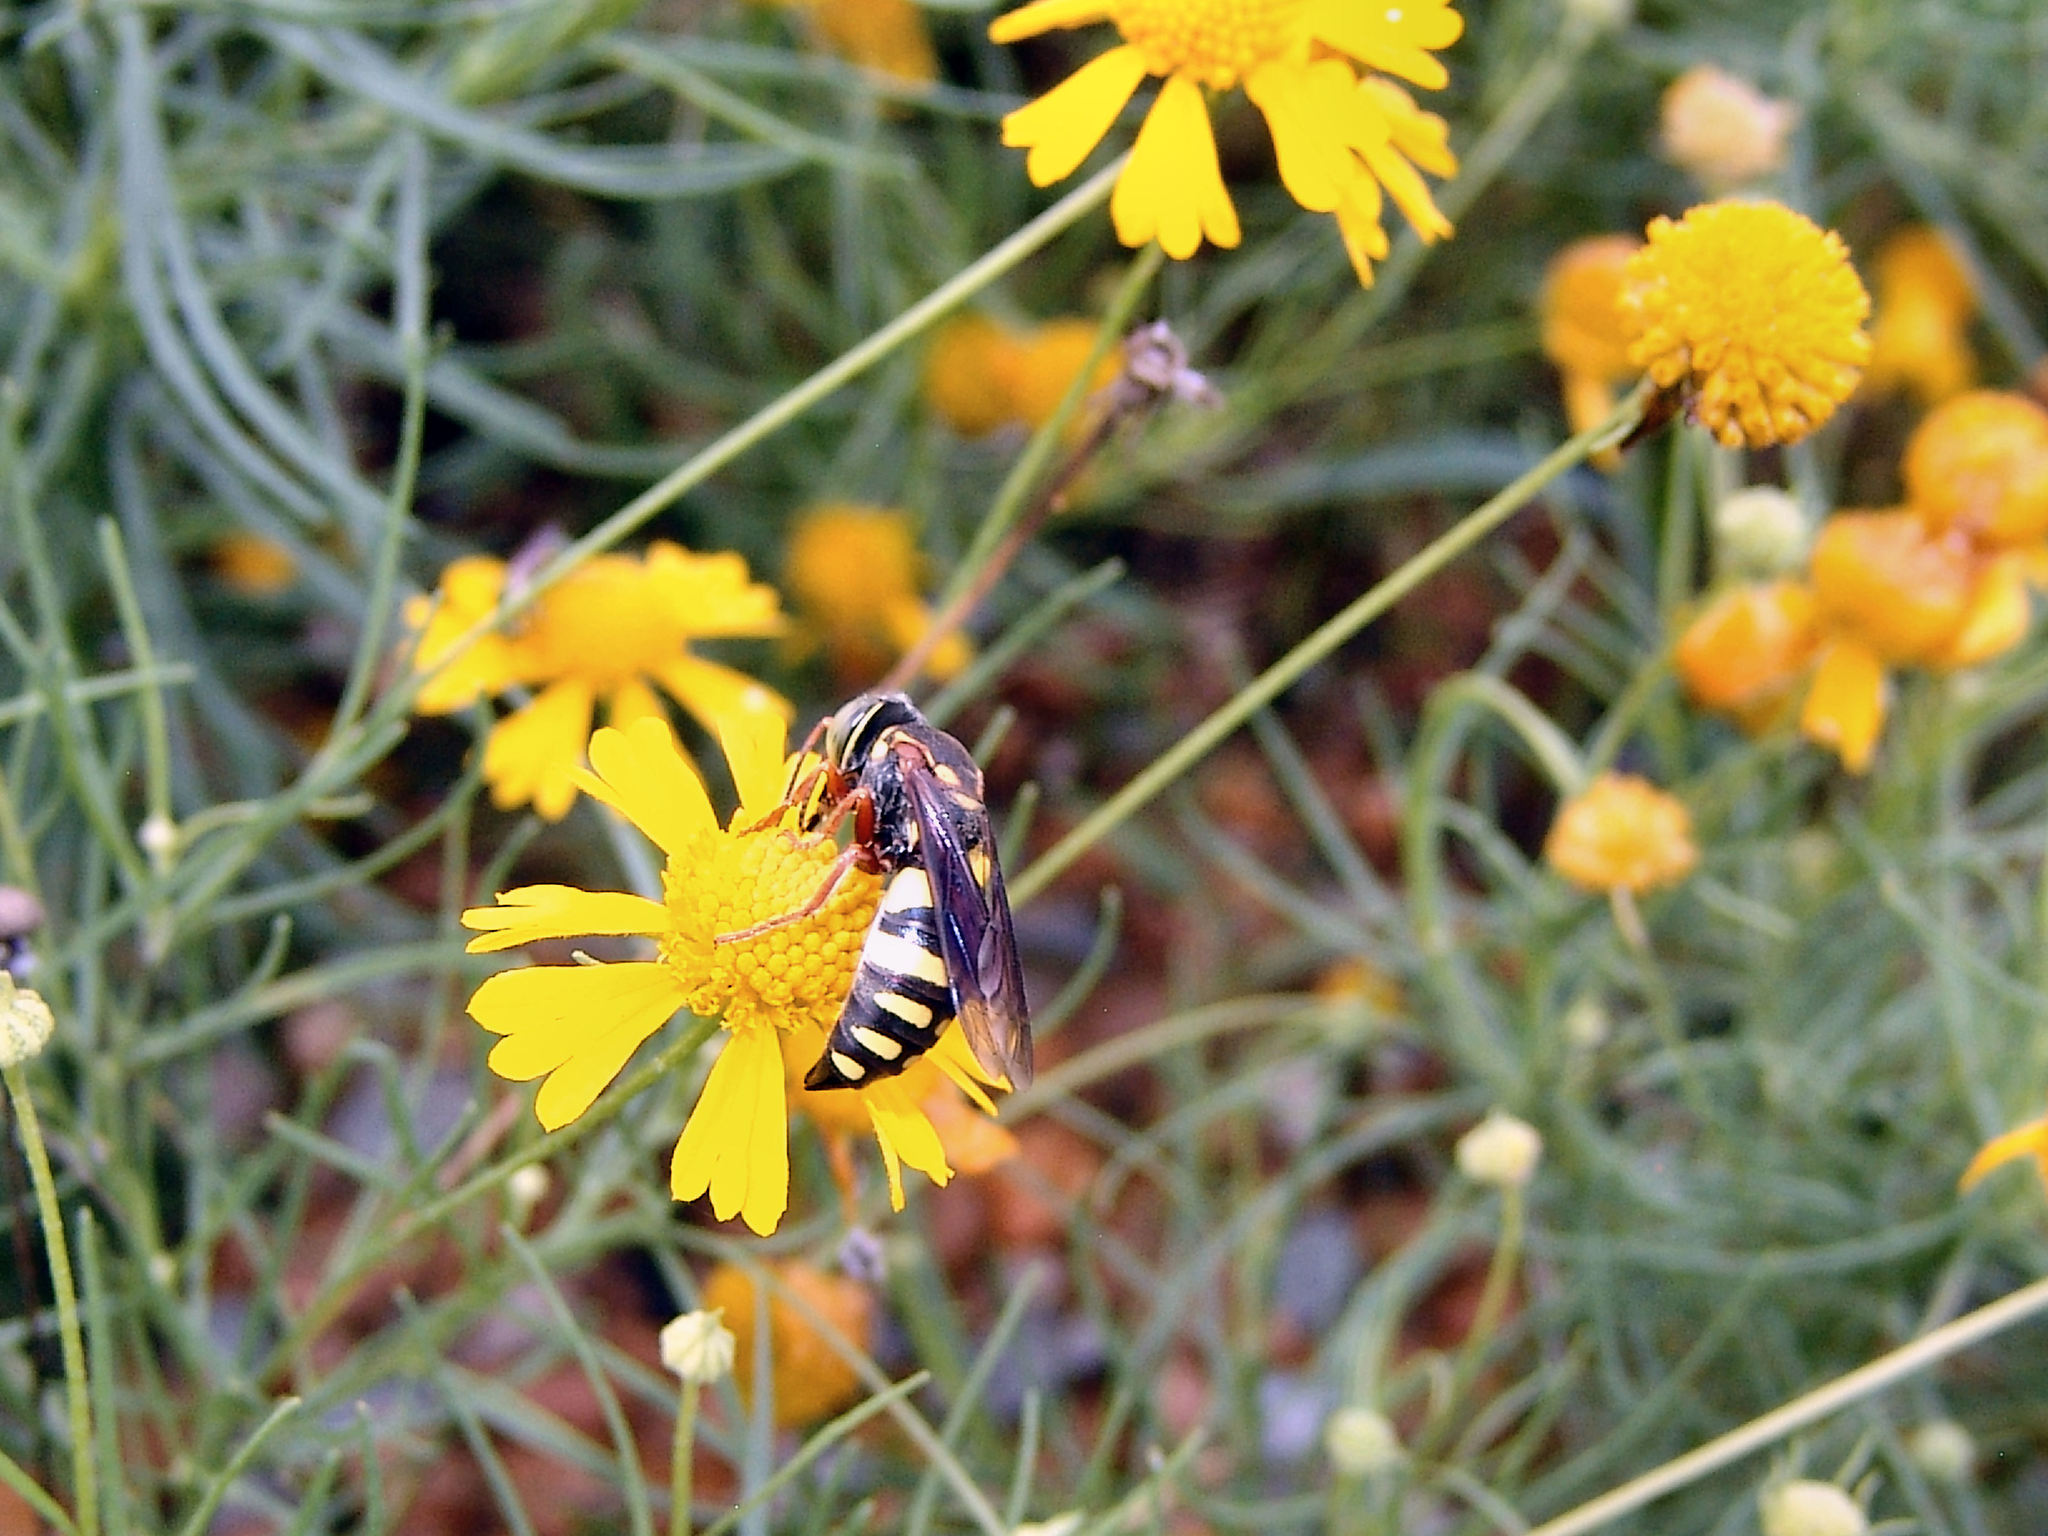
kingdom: Animalia
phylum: Arthropoda
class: Insecta
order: Hymenoptera
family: Crabronidae
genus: Bicyrtes
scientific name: Bicyrtes insidiatrix
